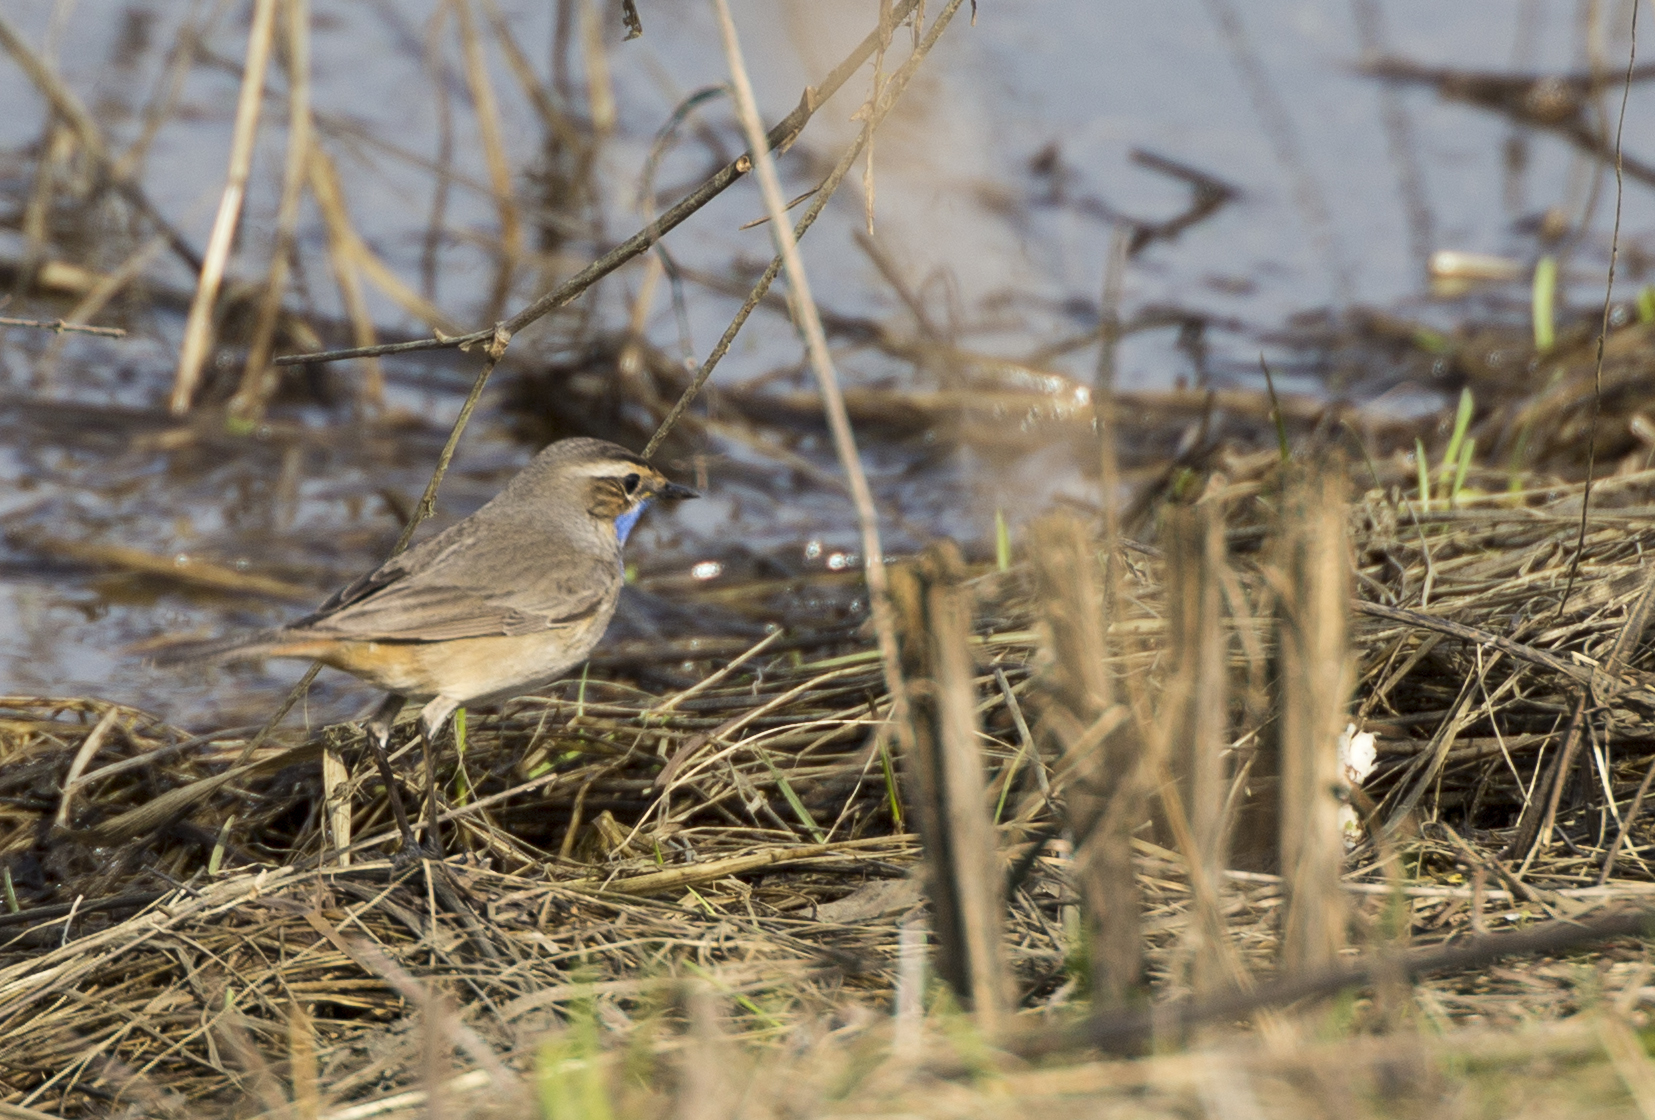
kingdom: Animalia
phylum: Chordata
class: Aves
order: Passeriformes
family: Muscicapidae
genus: Luscinia
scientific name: Luscinia svecica
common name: Bluethroat
